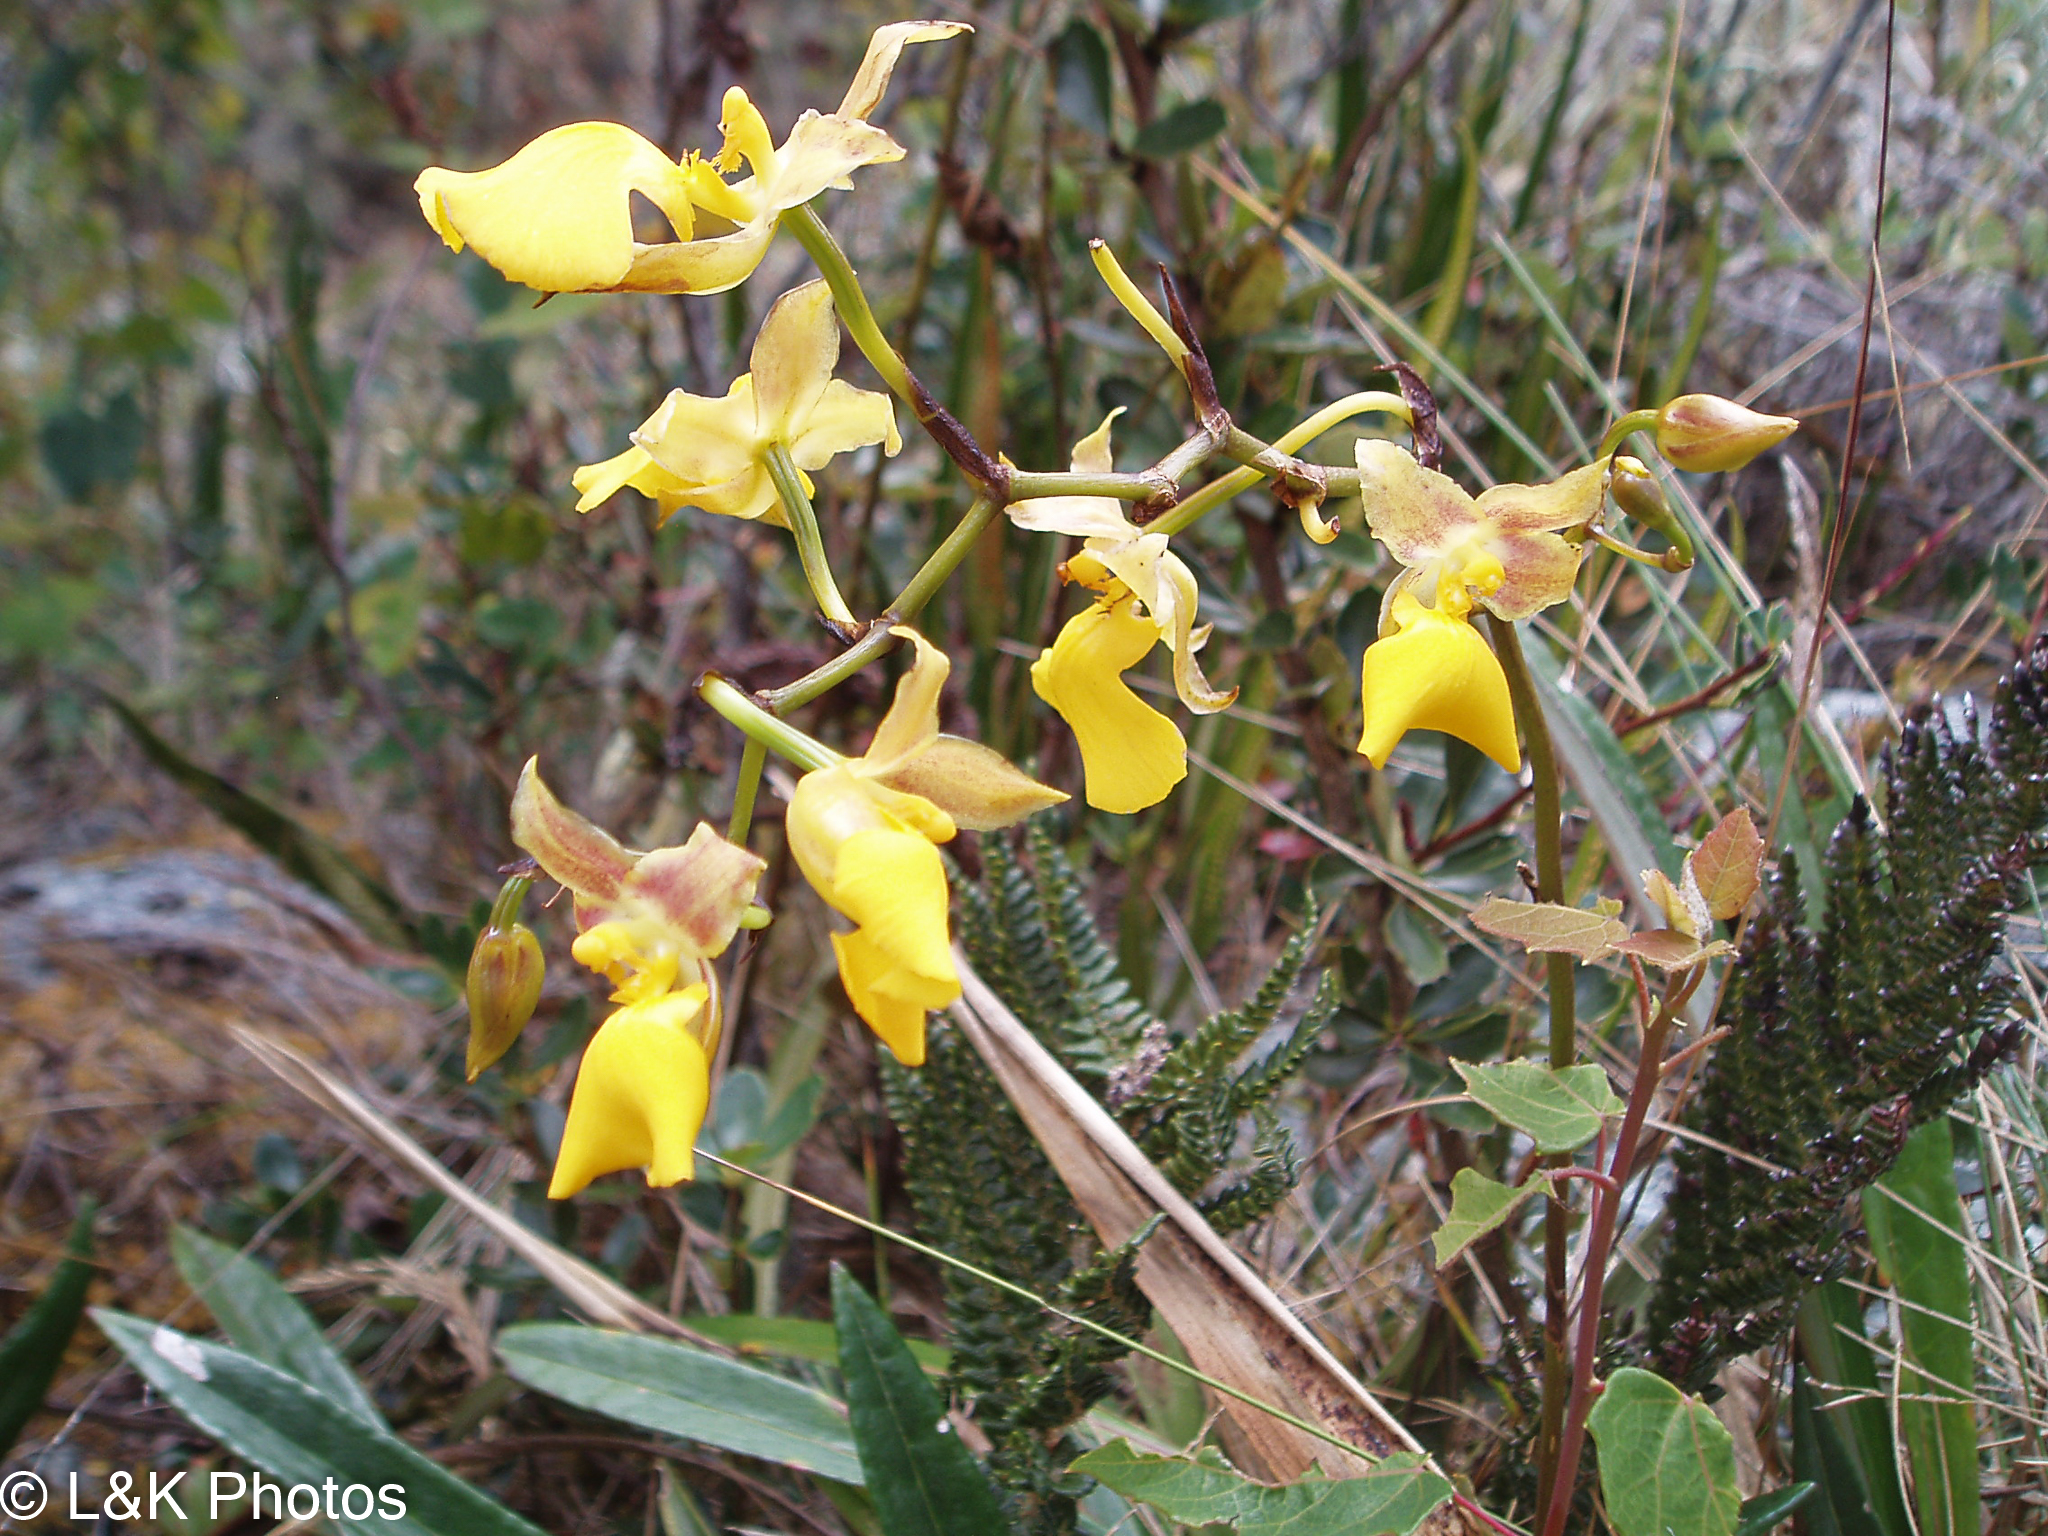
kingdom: Plantae
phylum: Tracheophyta
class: Liliopsida
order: Asparagales
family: Orchidaceae
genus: Cyrtochilum
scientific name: Cyrtochilum aureum
